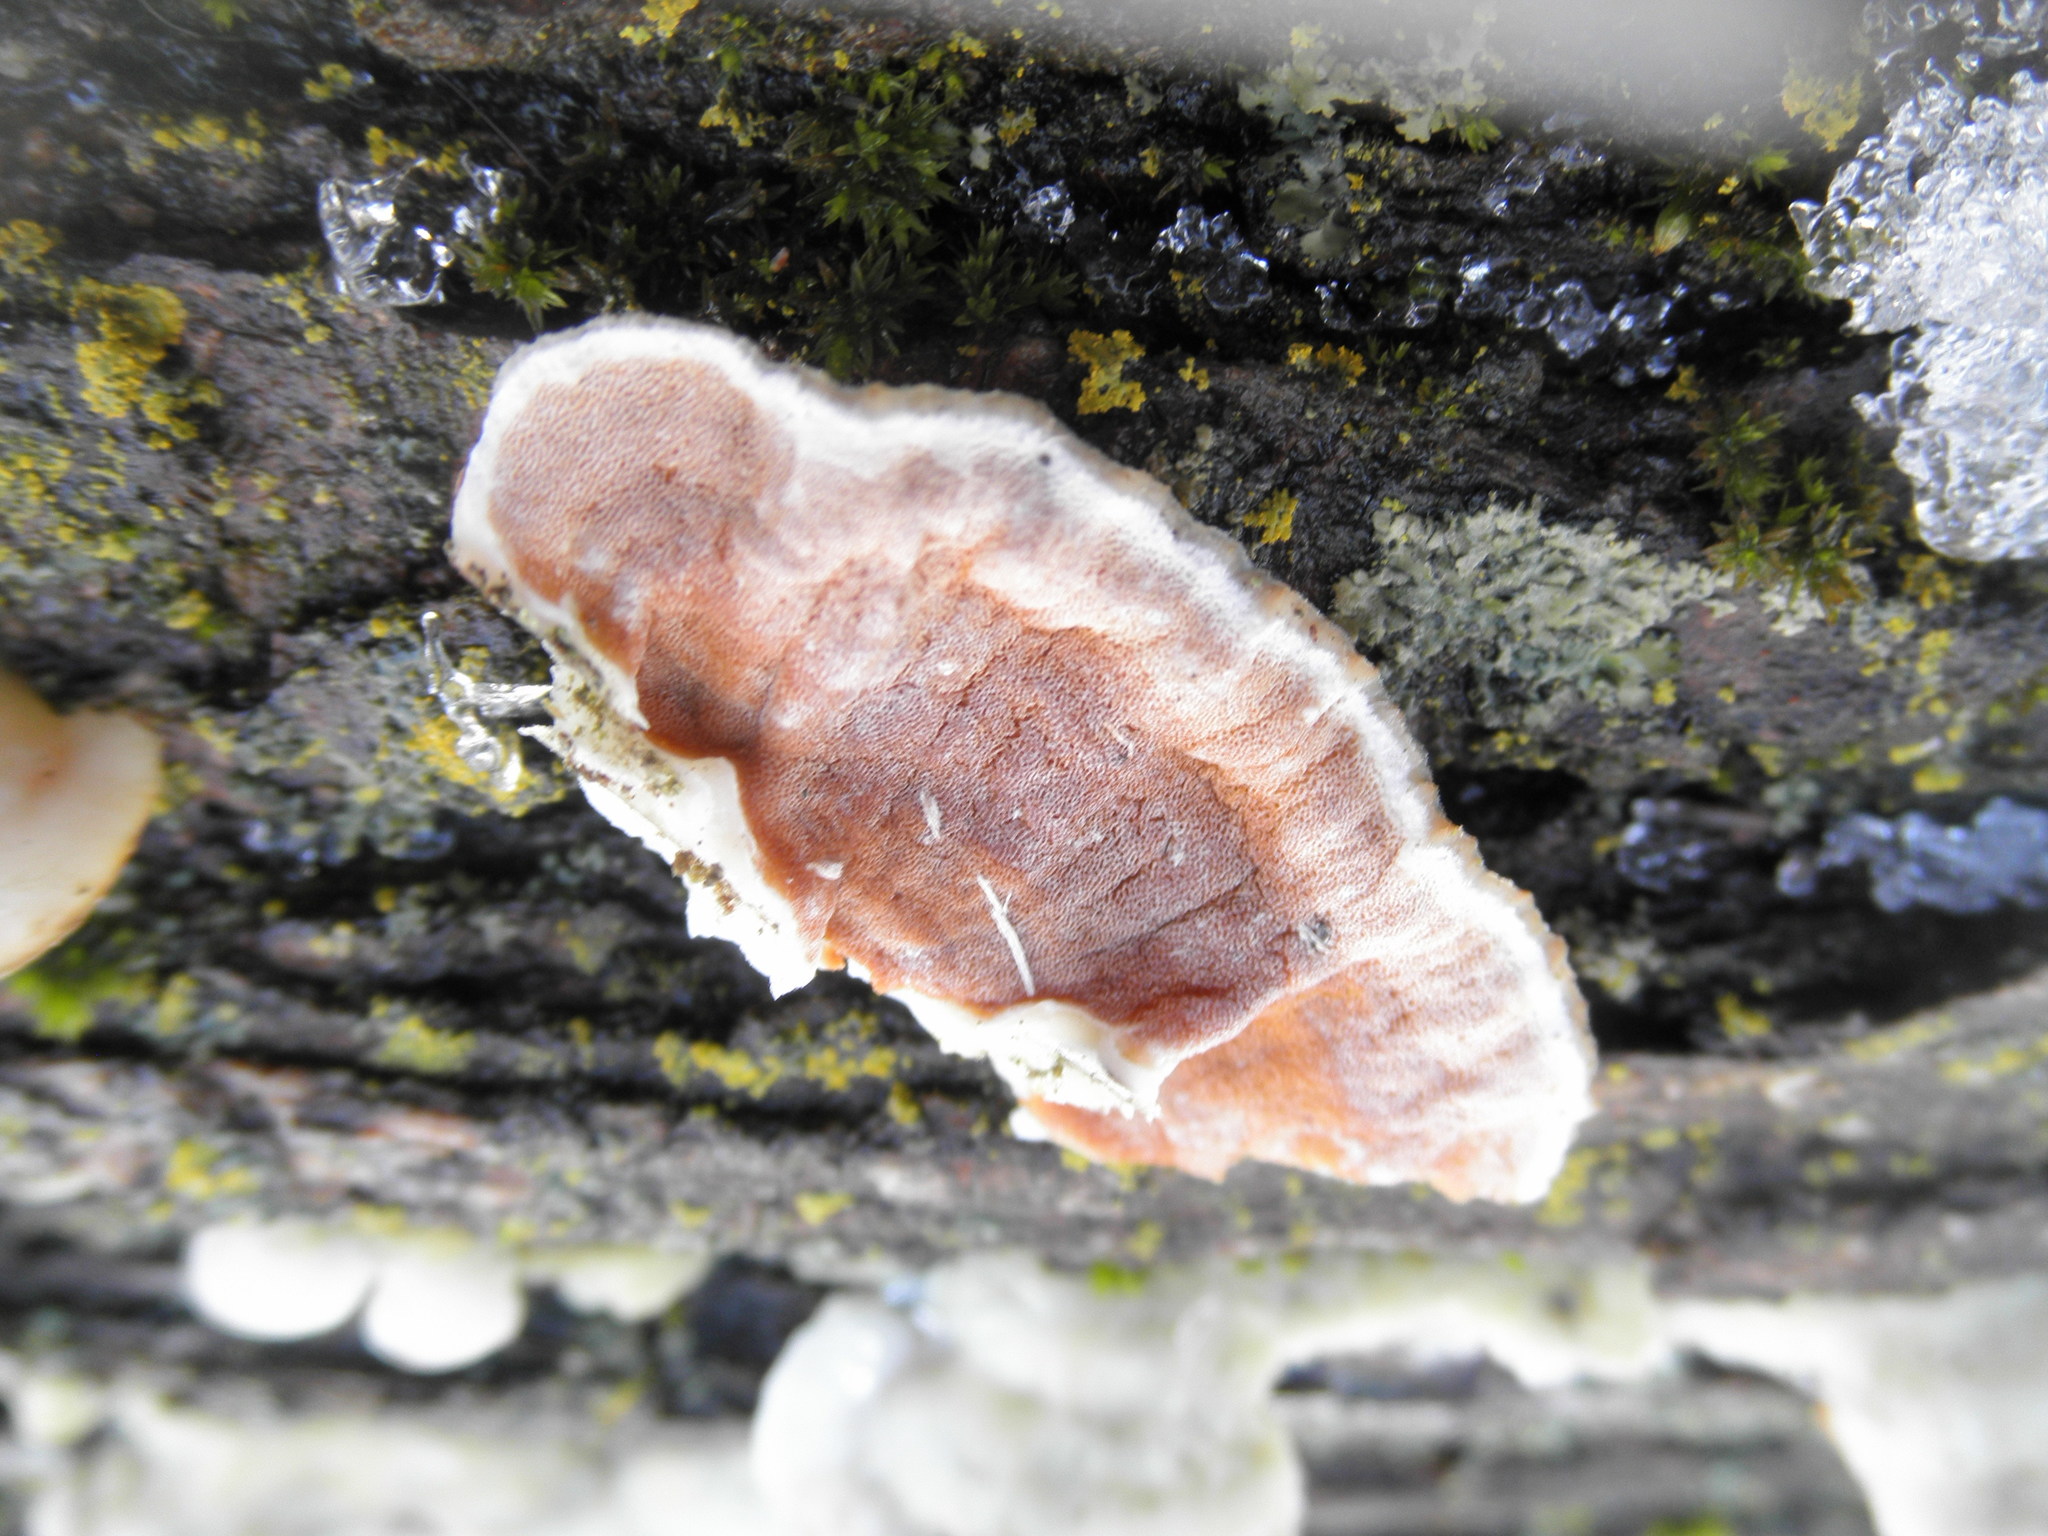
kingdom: Fungi
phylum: Basidiomycota
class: Agaricomycetes
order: Polyporales
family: Irpicaceae
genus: Vitreoporus
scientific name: Vitreoporus dichrous
